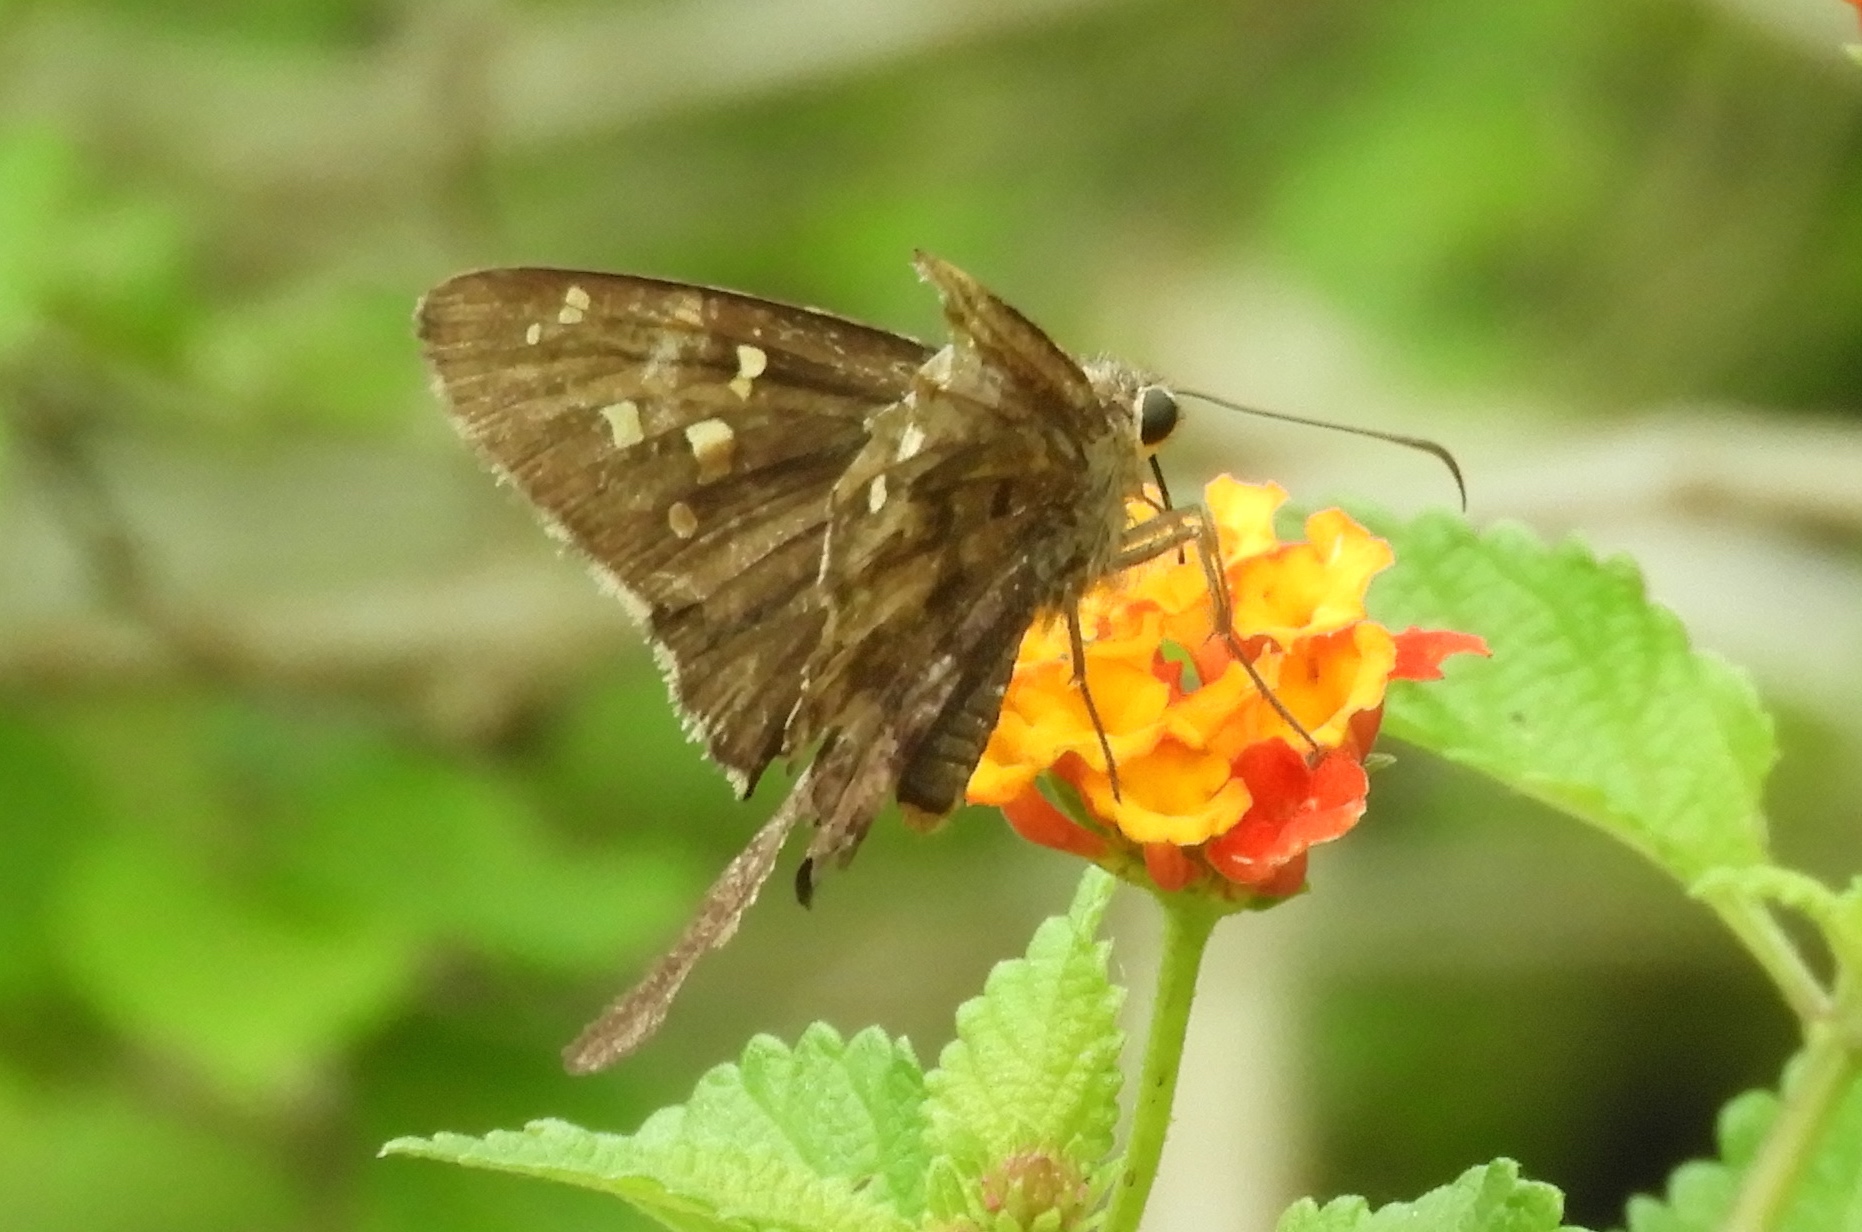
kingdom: Animalia
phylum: Arthropoda
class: Insecta
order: Lepidoptera
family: Hesperiidae
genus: Thorybes
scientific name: Thorybes
